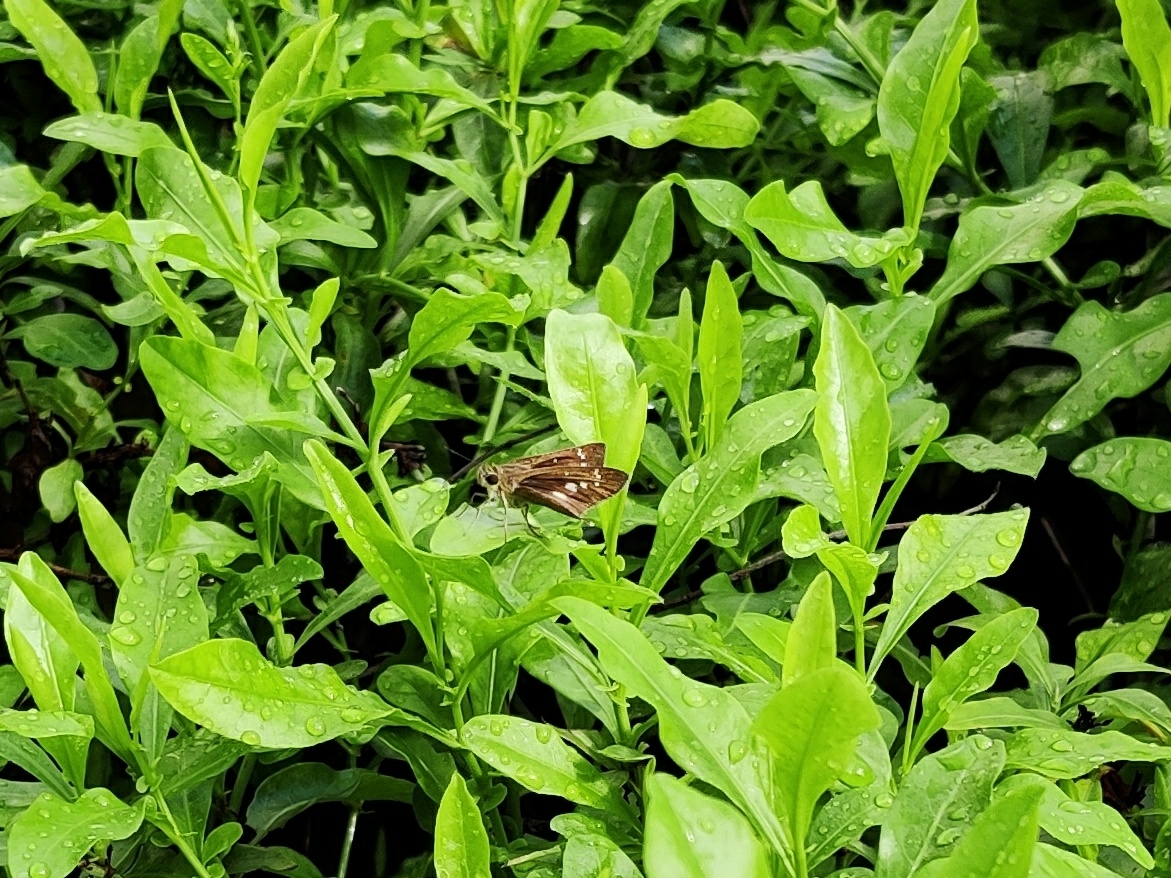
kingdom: Animalia
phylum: Arthropoda
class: Insecta
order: Lepidoptera
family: Hesperiidae
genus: Borbo
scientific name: Borbo cinnara
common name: Formosan swift
